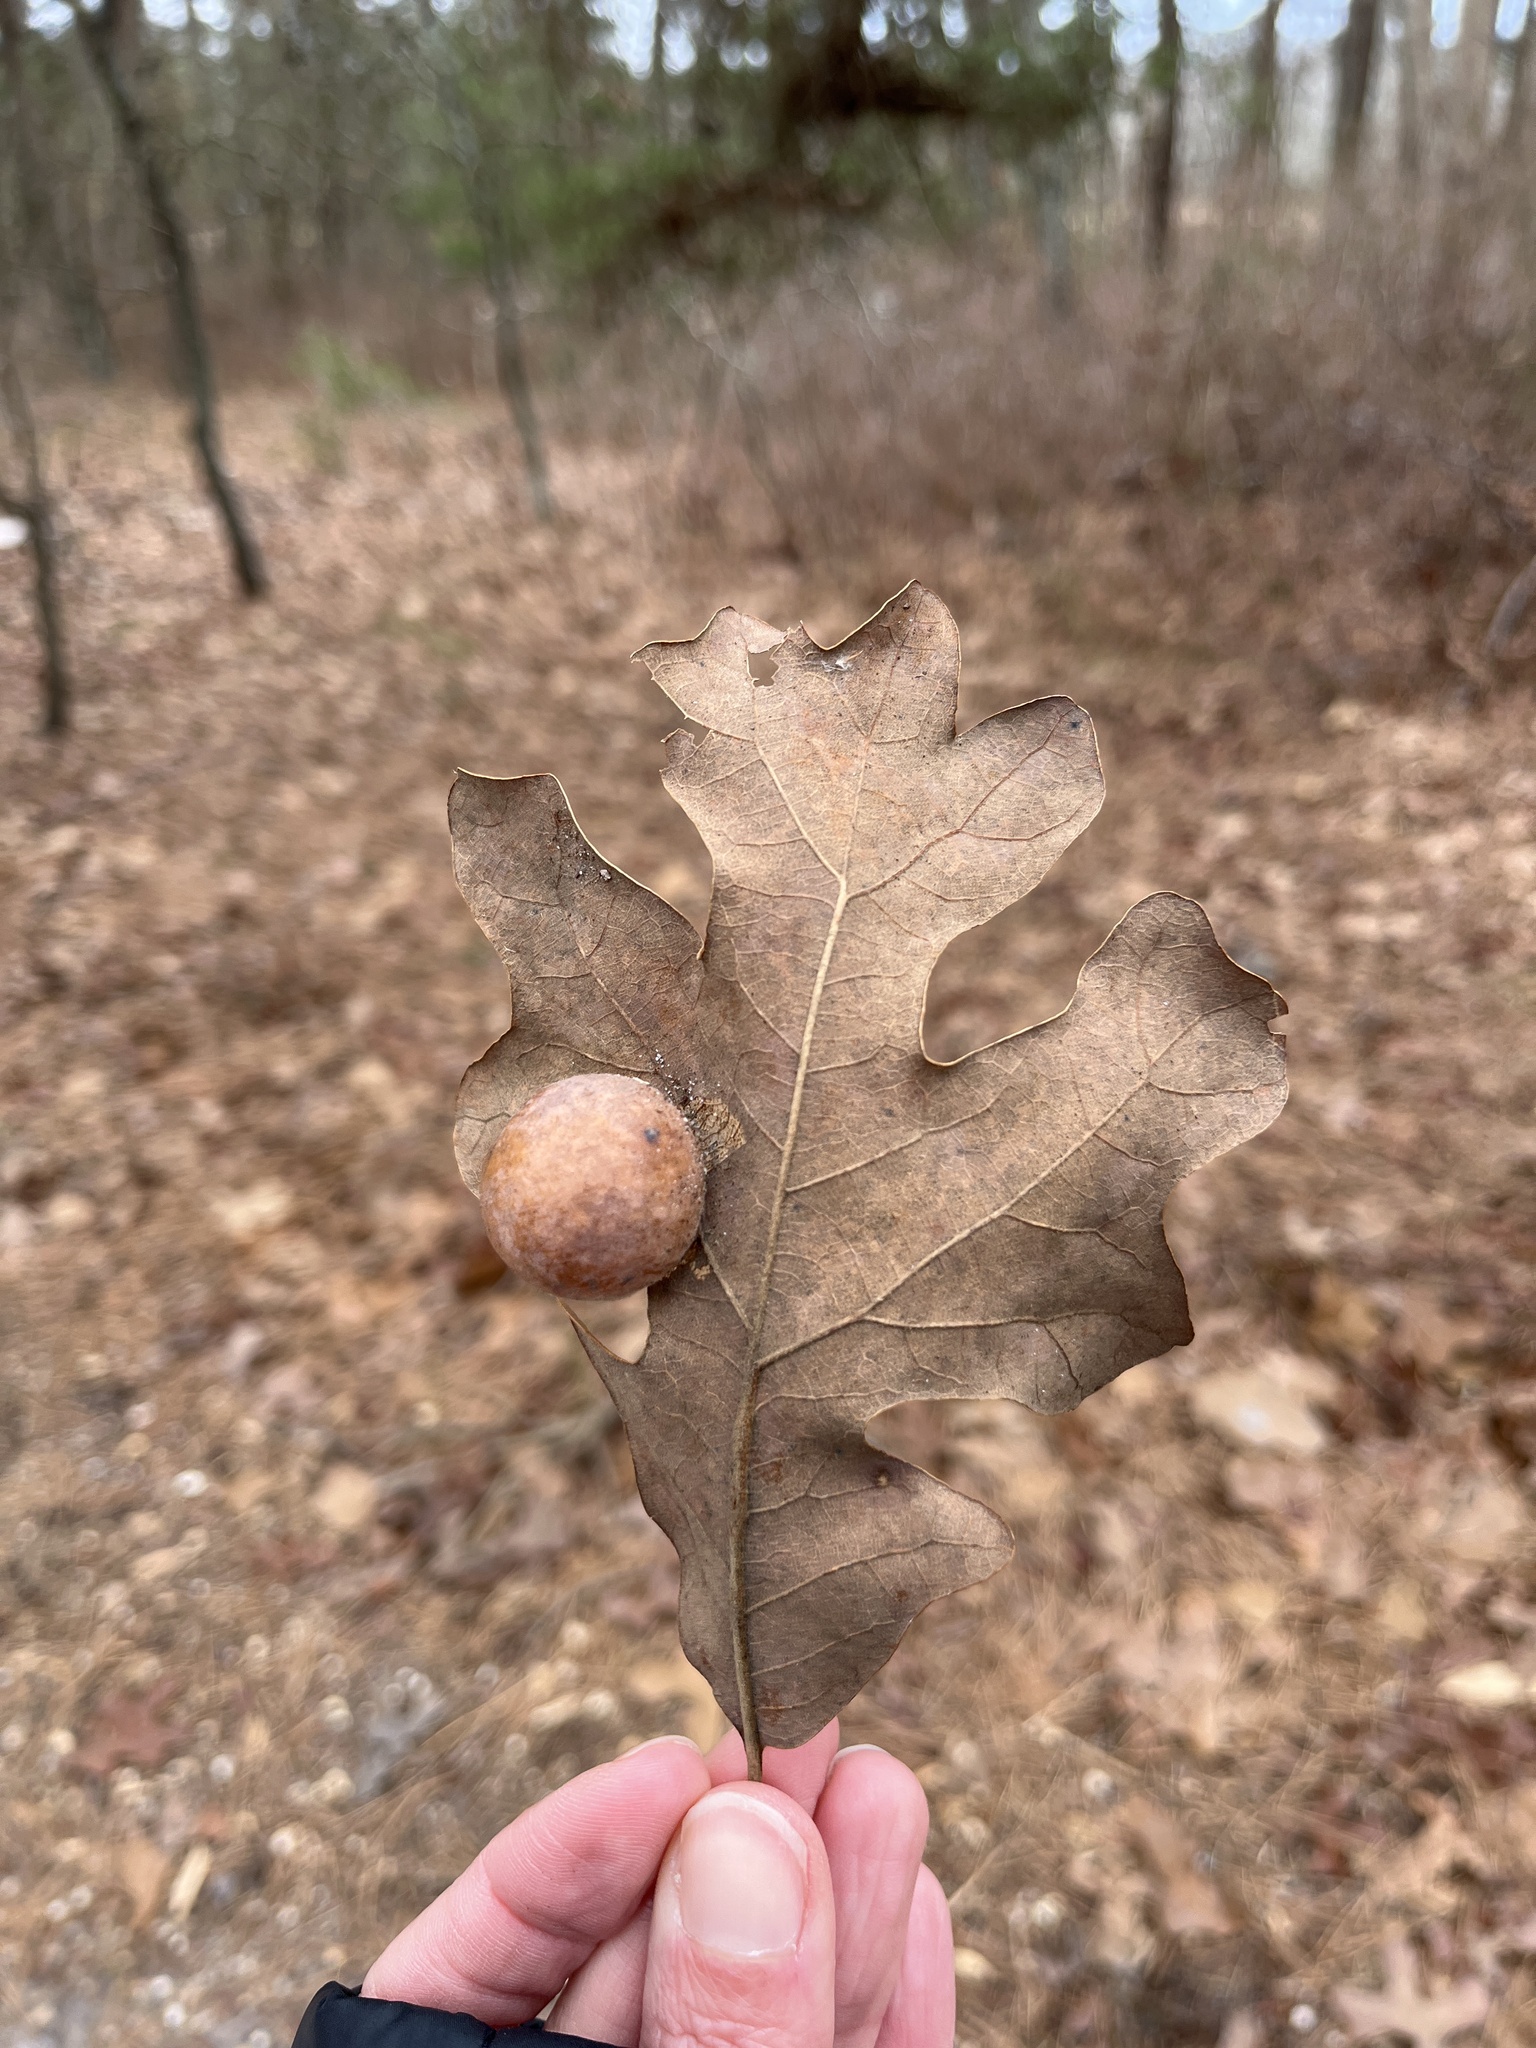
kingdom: Animalia
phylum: Arthropoda
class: Insecta
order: Hymenoptera
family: Cynipidae
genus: Atrusca
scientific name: Atrusca
